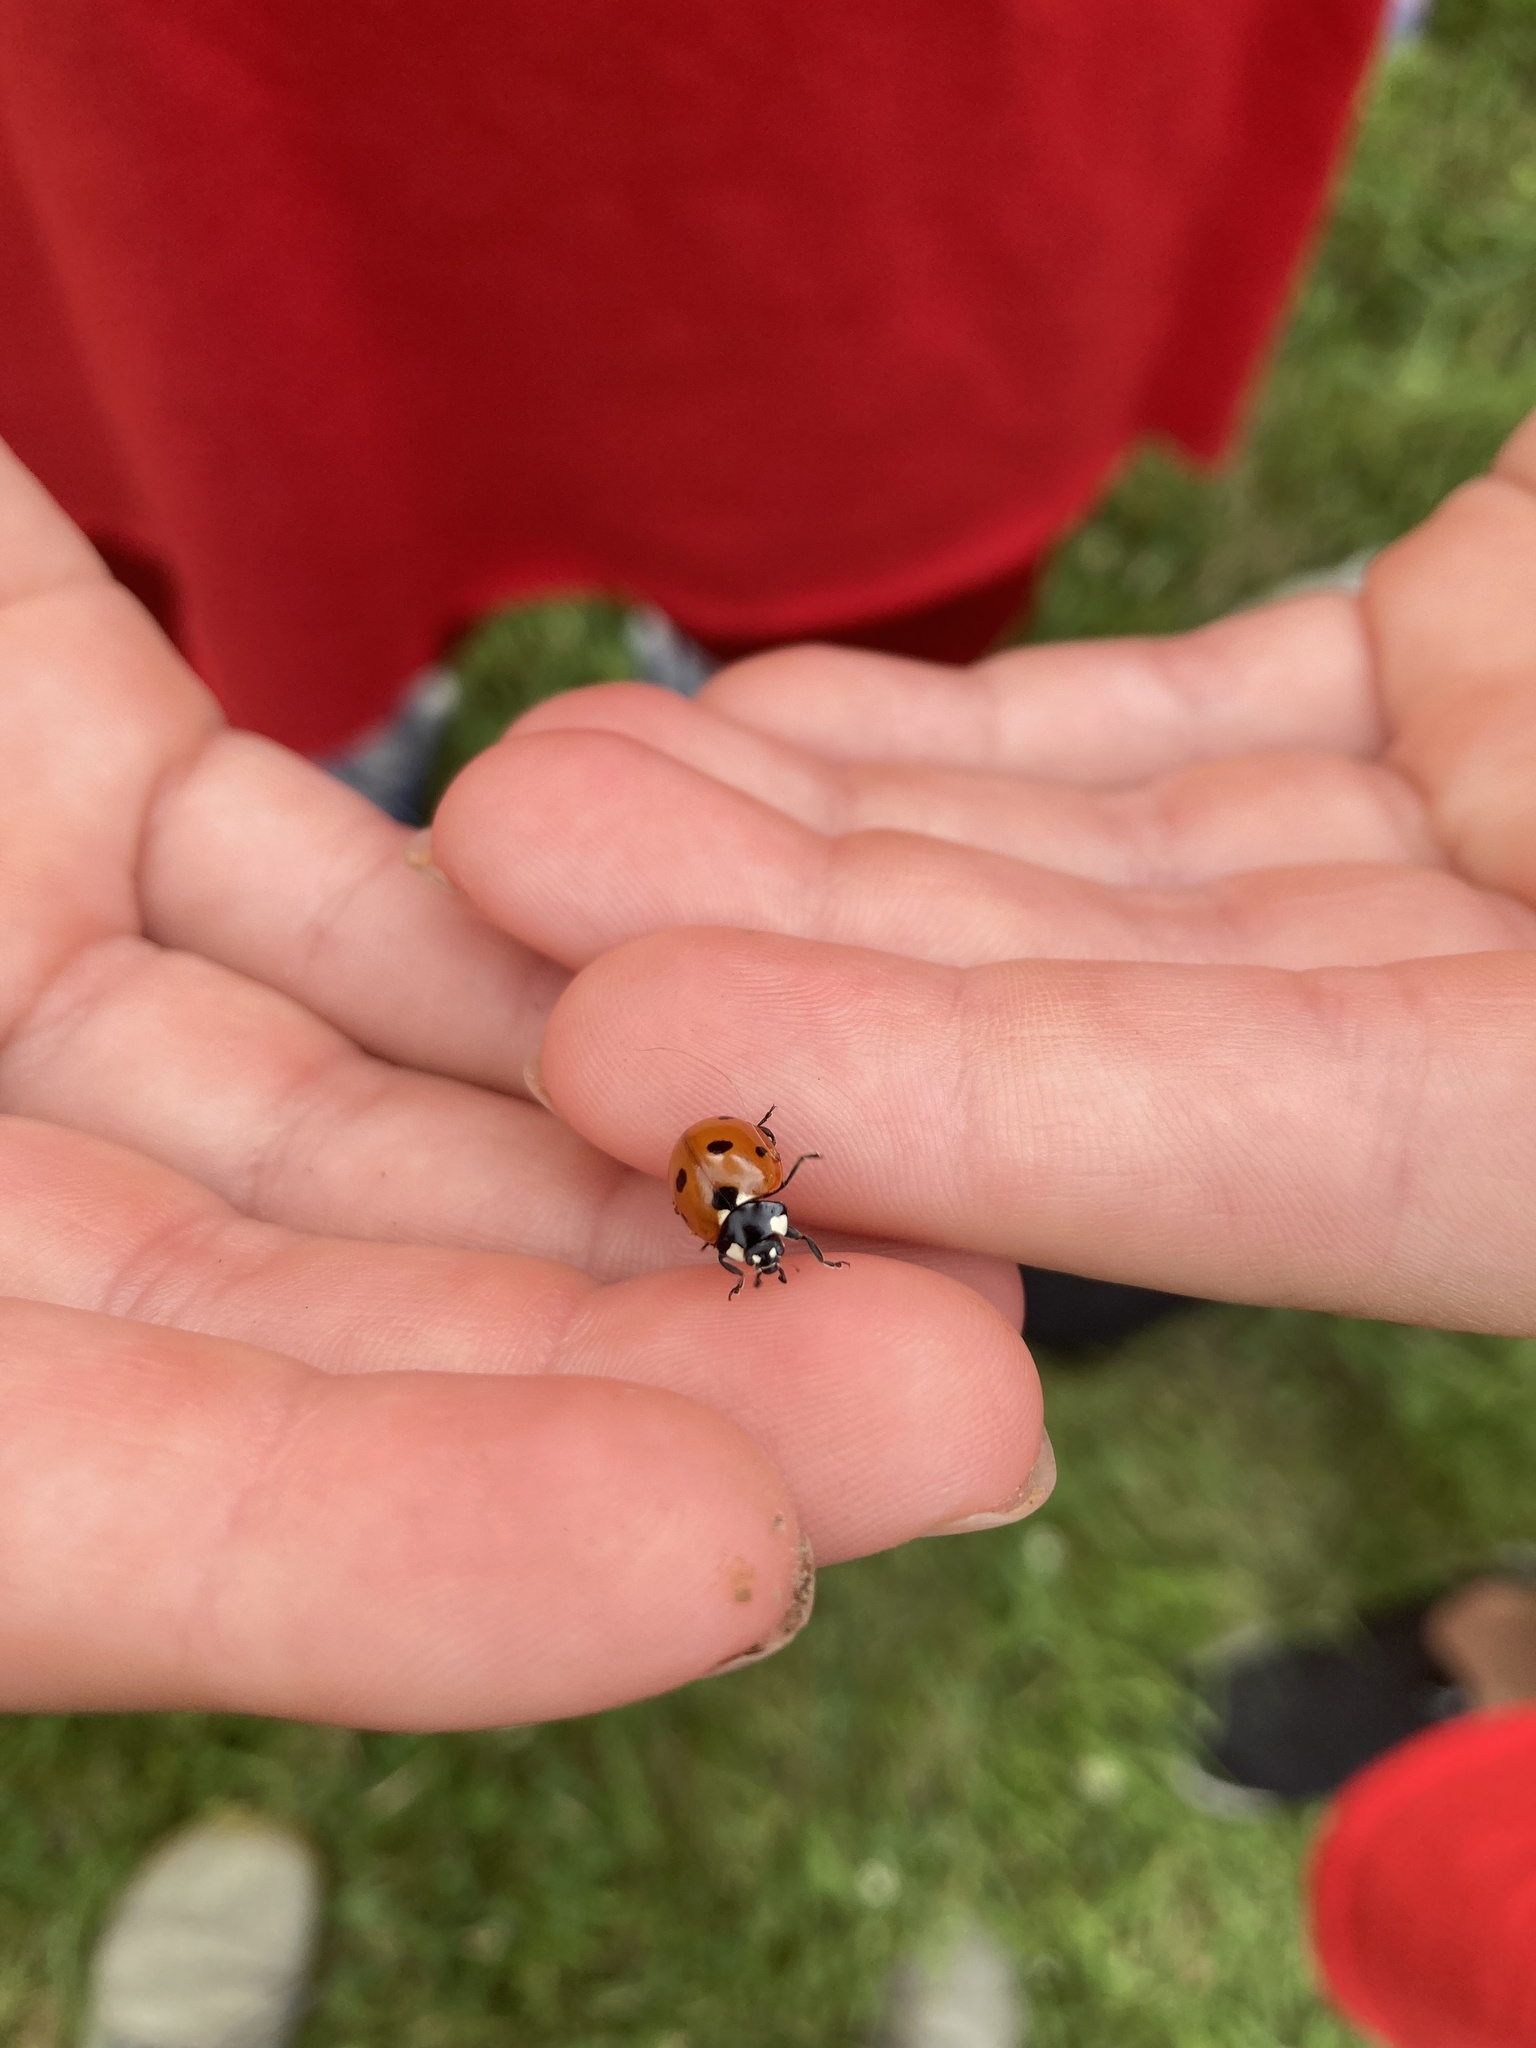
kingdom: Animalia
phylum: Arthropoda
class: Insecta
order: Coleoptera
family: Coccinellidae
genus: Coccinella
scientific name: Coccinella septempunctata
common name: Sevenspotted lady beetle
